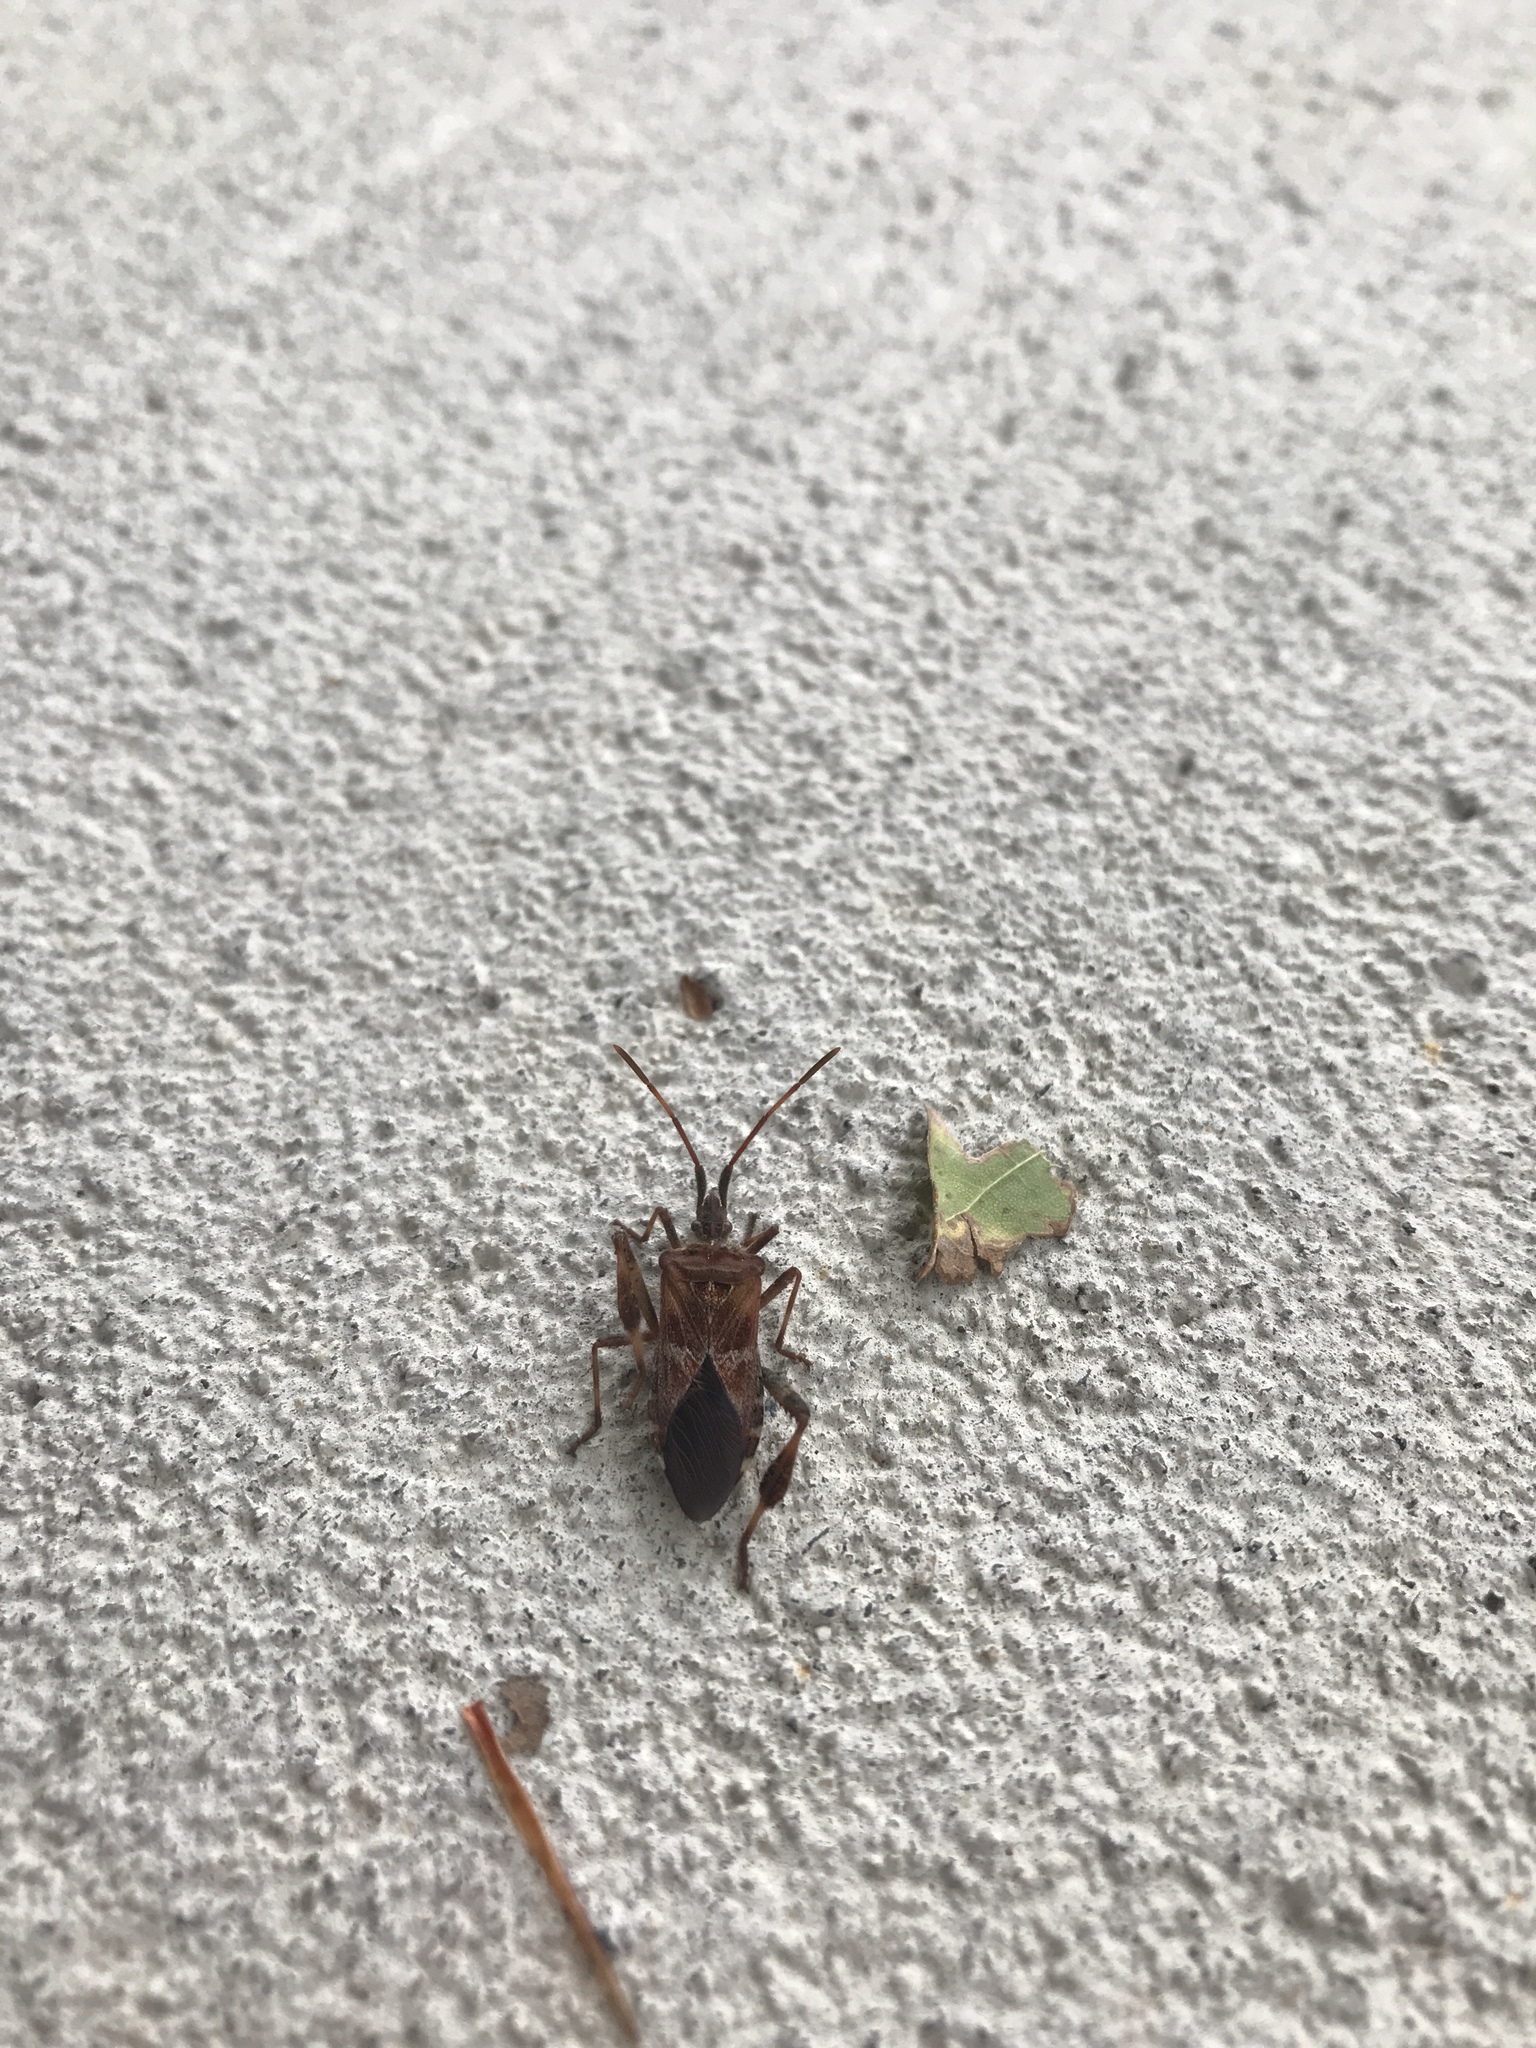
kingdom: Animalia
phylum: Arthropoda
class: Insecta
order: Hemiptera
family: Coreidae
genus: Leptoglossus
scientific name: Leptoglossus occidentalis
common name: Western conifer-seed bug
